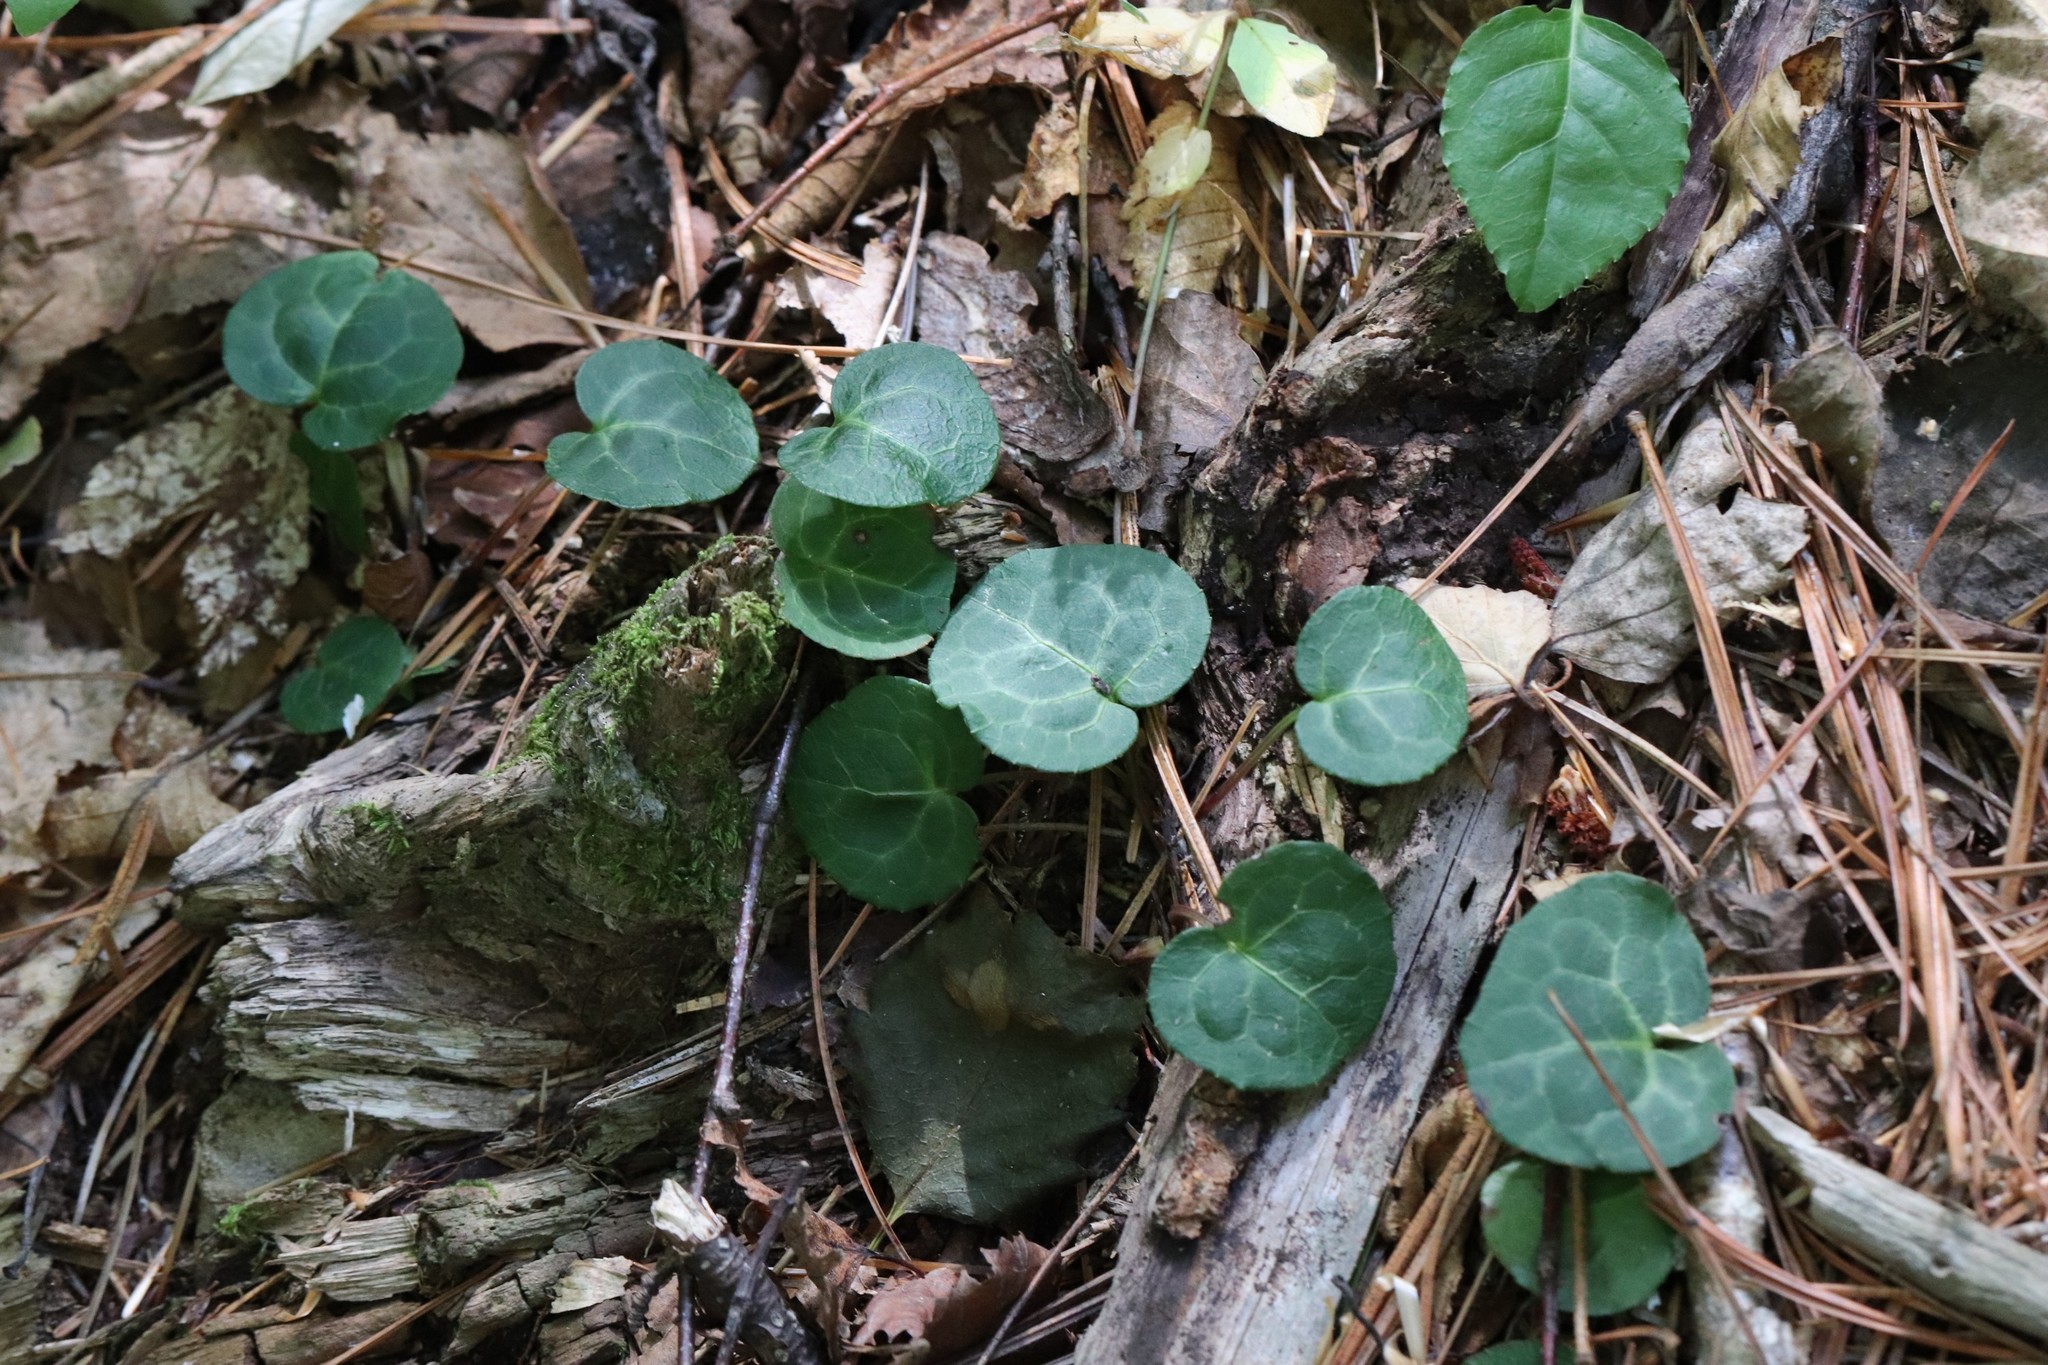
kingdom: Plantae
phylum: Tracheophyta
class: Magnoliopsida
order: Ericales
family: Ericaceae
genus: Pyrola
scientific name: Pyrola renifolia
